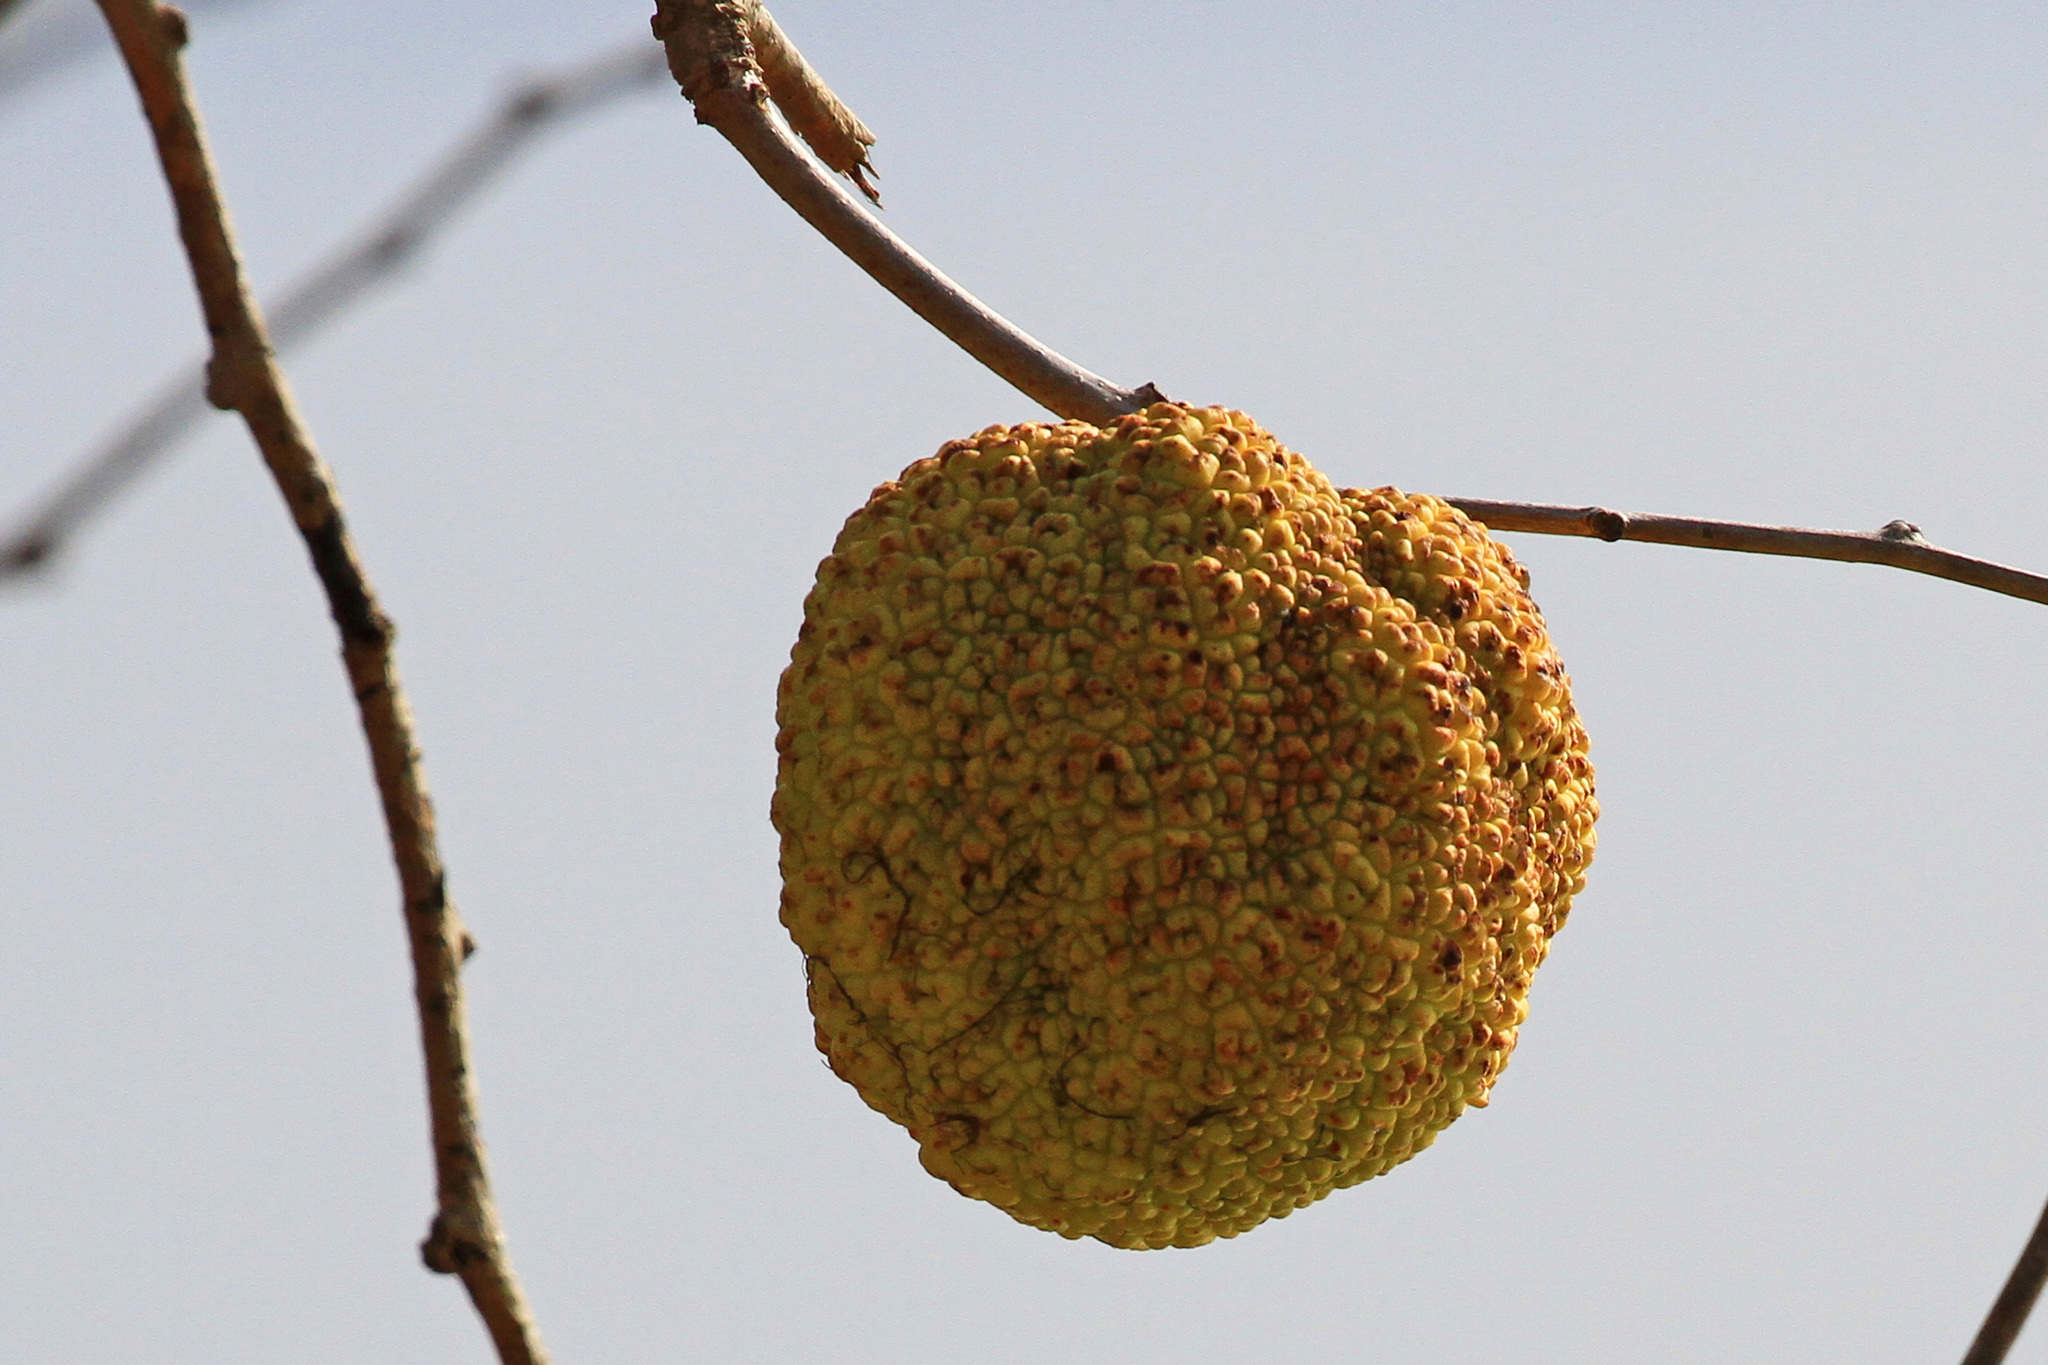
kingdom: Plantae
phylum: Tracheophyta
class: Magnoliopsida
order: Rosales
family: Moraceae
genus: Maclura
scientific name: Maclura pomifera
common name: Osage-orange
